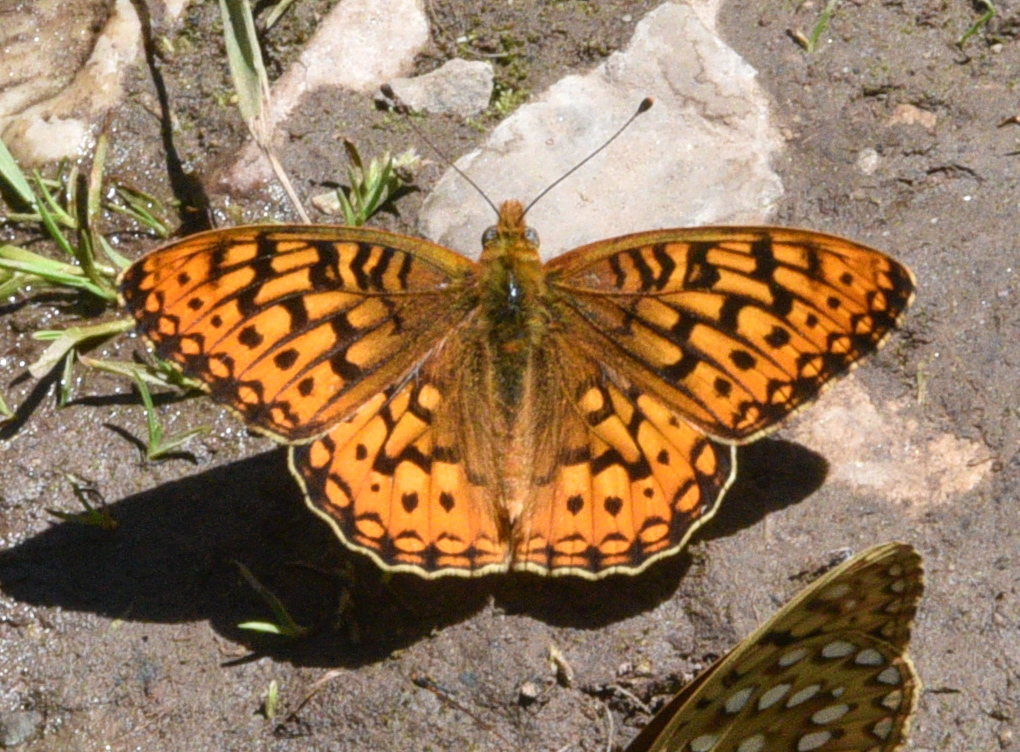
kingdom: Animalia
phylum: Arthropoda
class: Insecta
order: Lepidoptera
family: Nymphalidae
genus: Speyeria
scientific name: Speyeria mormonia
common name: Mormon fritillary
